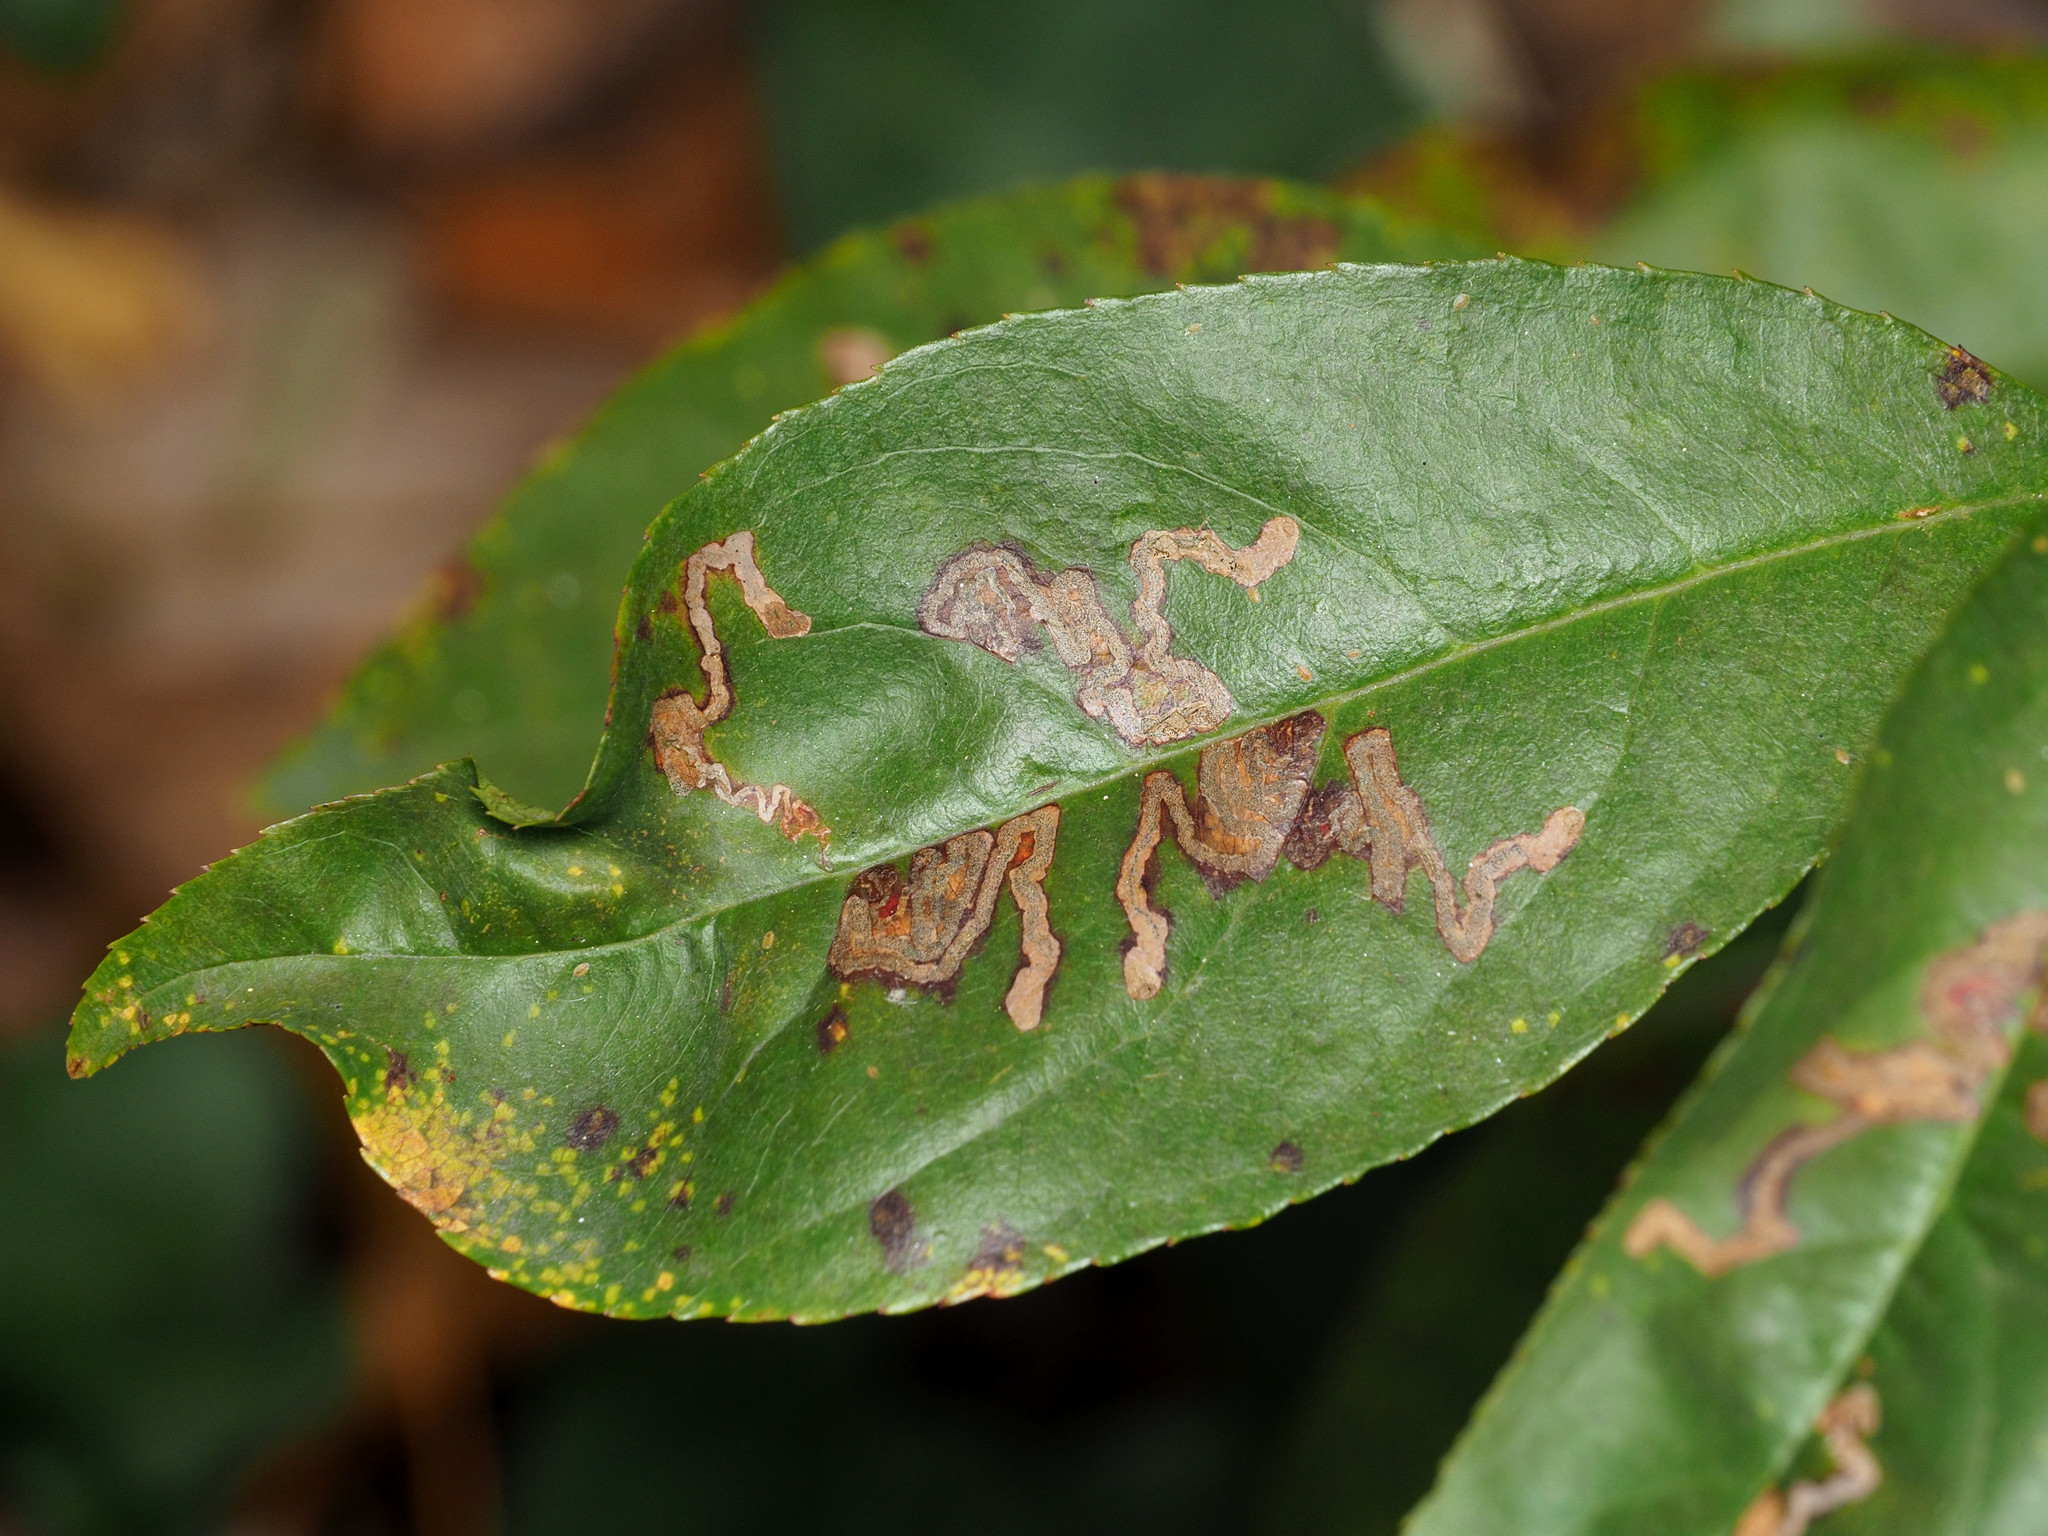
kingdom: Animalia
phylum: Arthropoda
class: Insecta
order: Lepidoptera
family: Nepticulidae
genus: Stigmella
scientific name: Stigmella prunifoliella
